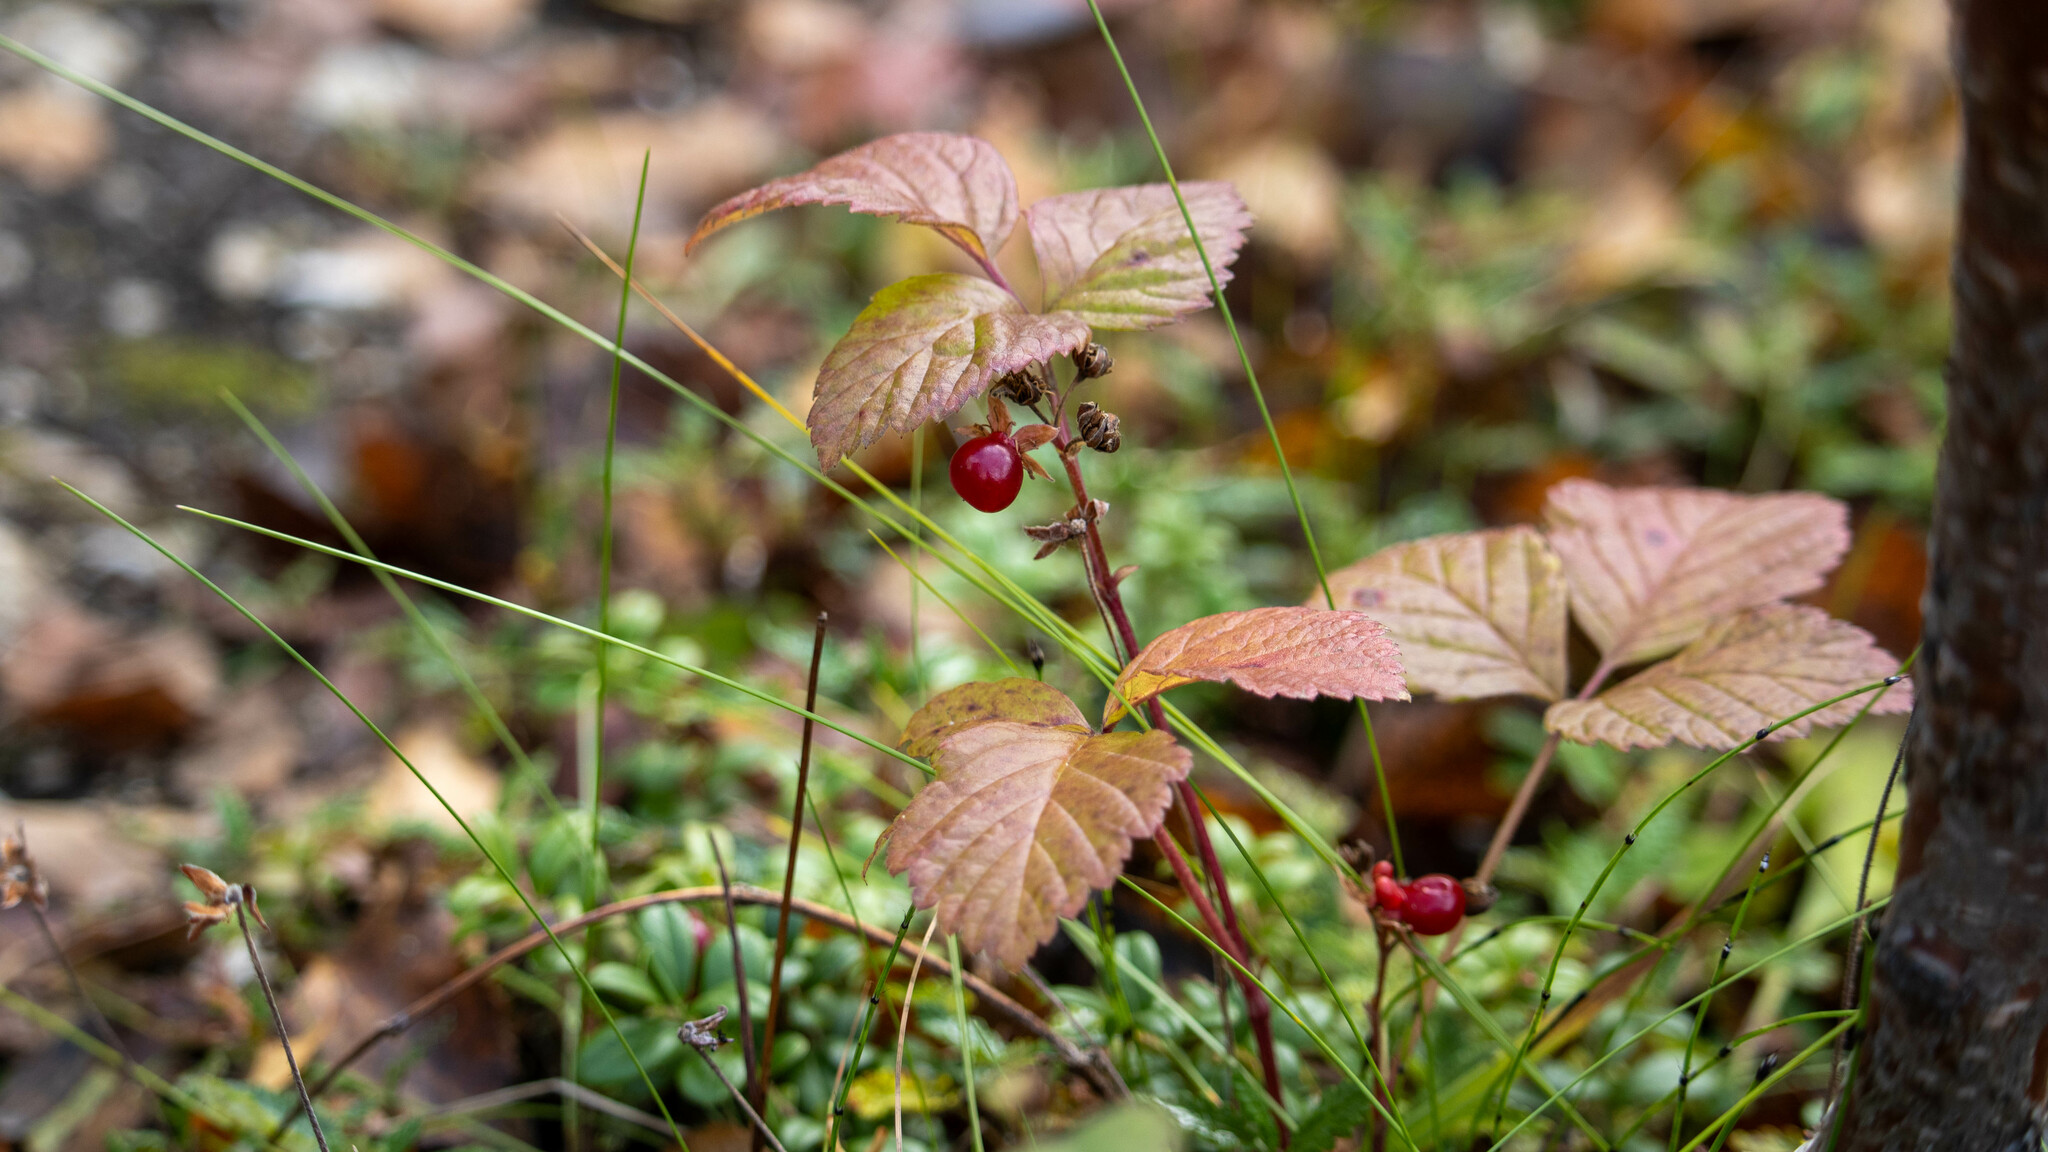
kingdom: Plantae
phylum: Tracheophyta
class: Magnoliopsida
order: Rosales
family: Rosaceae
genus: Rubus
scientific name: Rubus saxatilis
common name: Stone bramble
